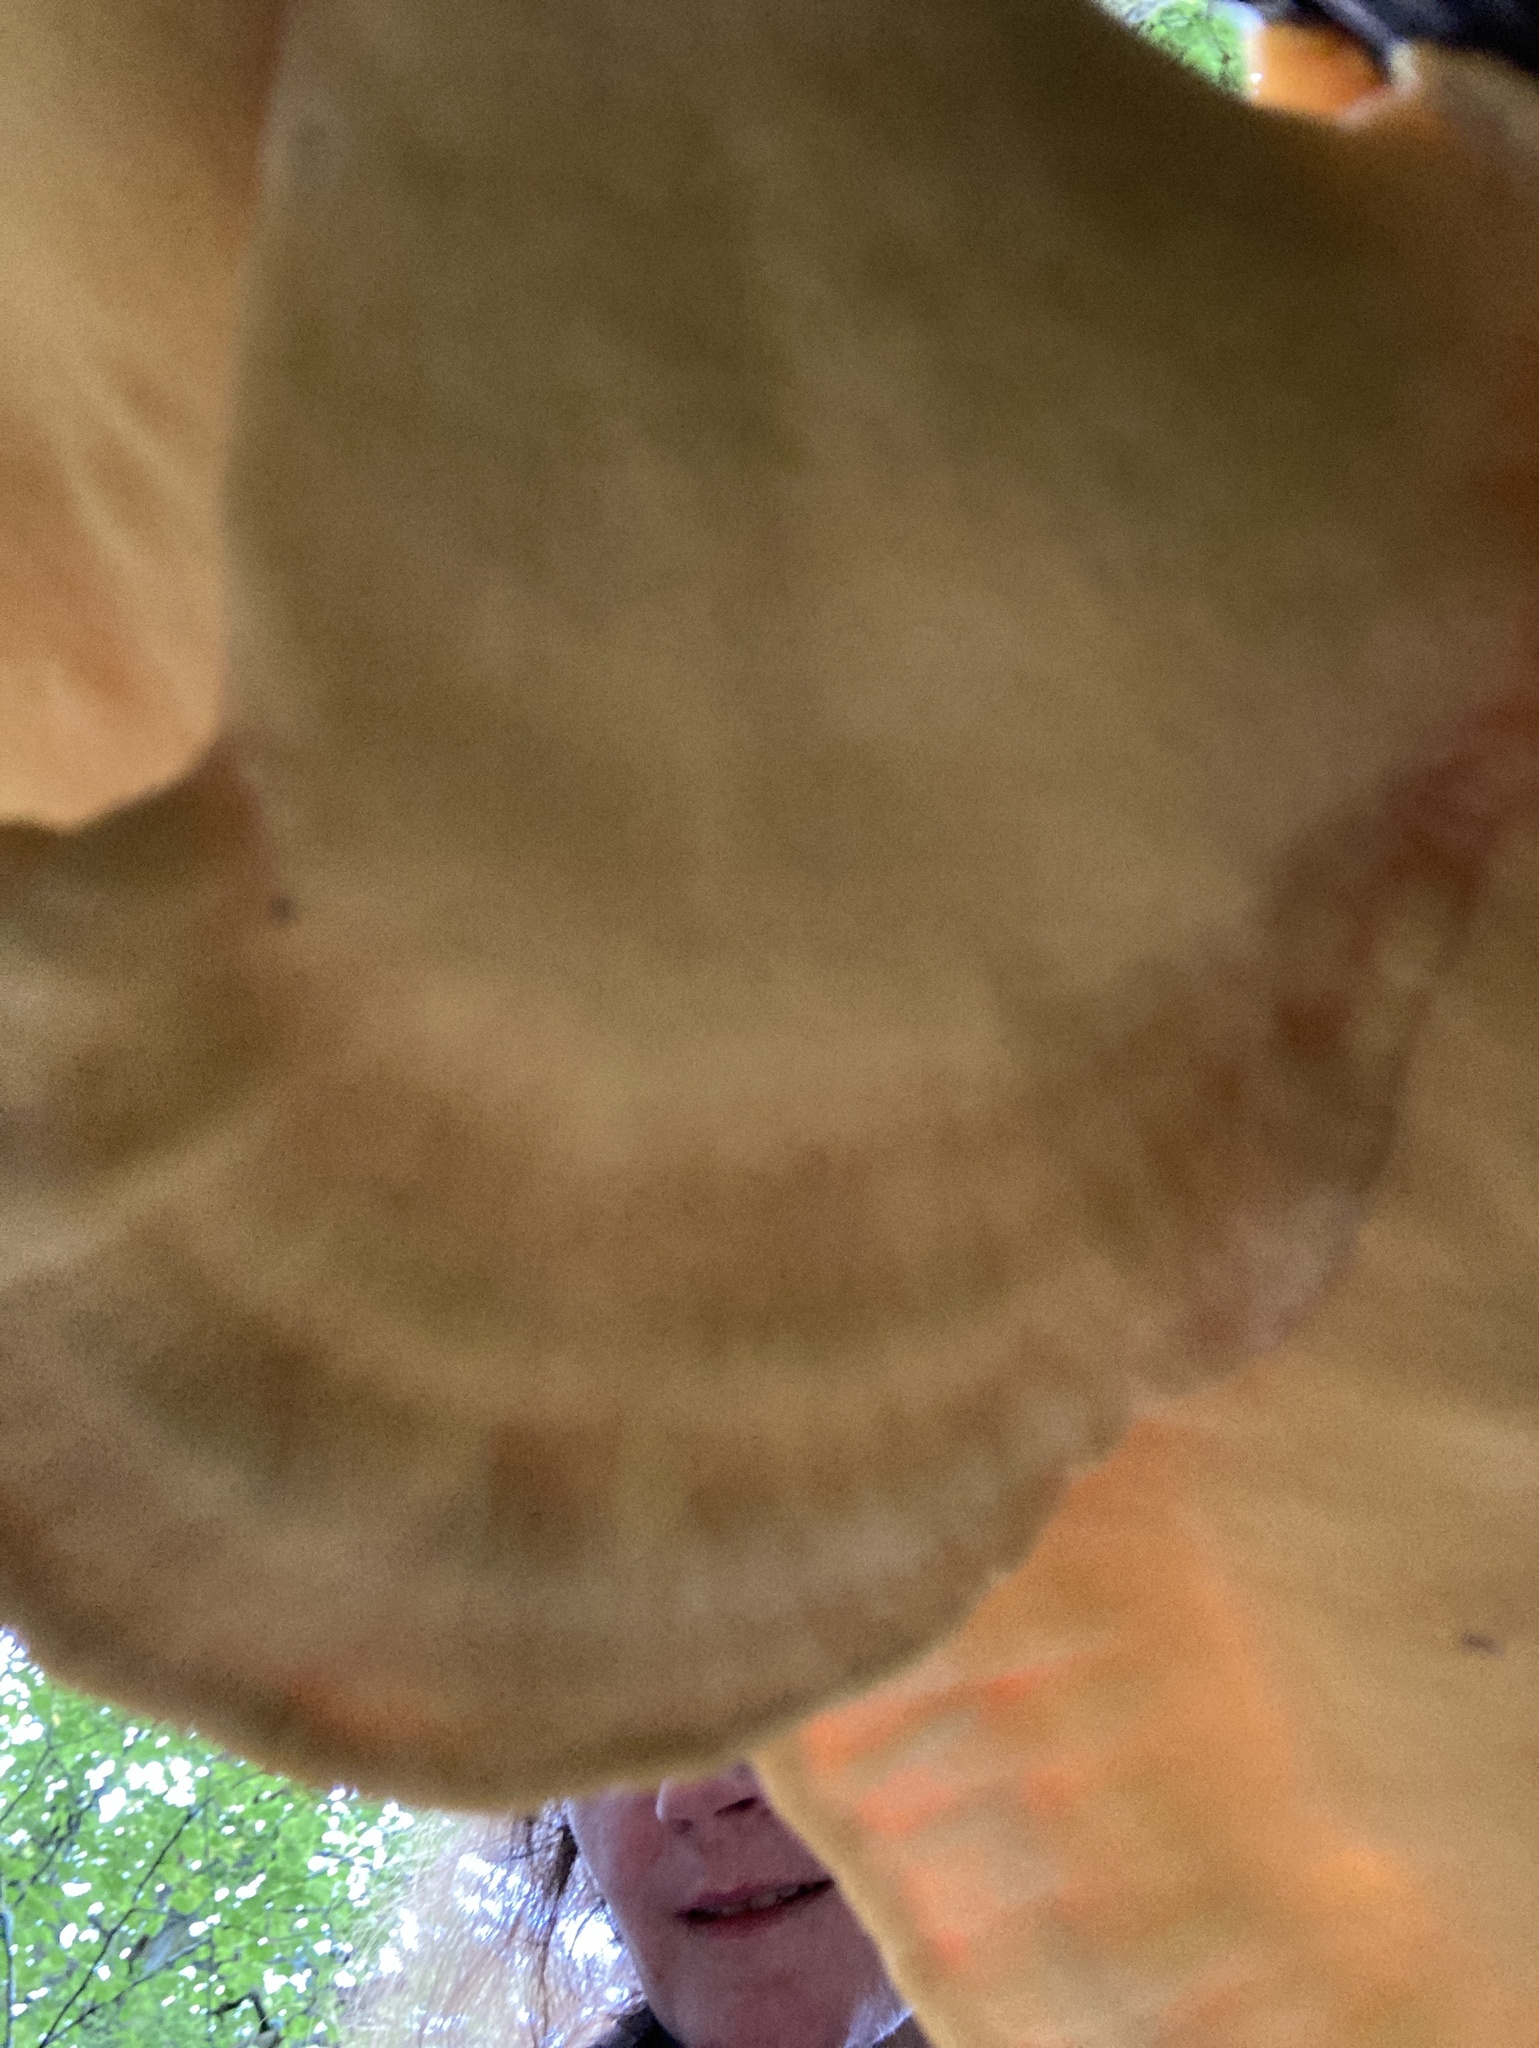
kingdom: Fungi
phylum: Basidiomycota
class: Agaricomycetes
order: Polyporales
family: Laetiporaceae
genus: Laetiporus
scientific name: Laetiporus sulphureus
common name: Chicken of the woods
